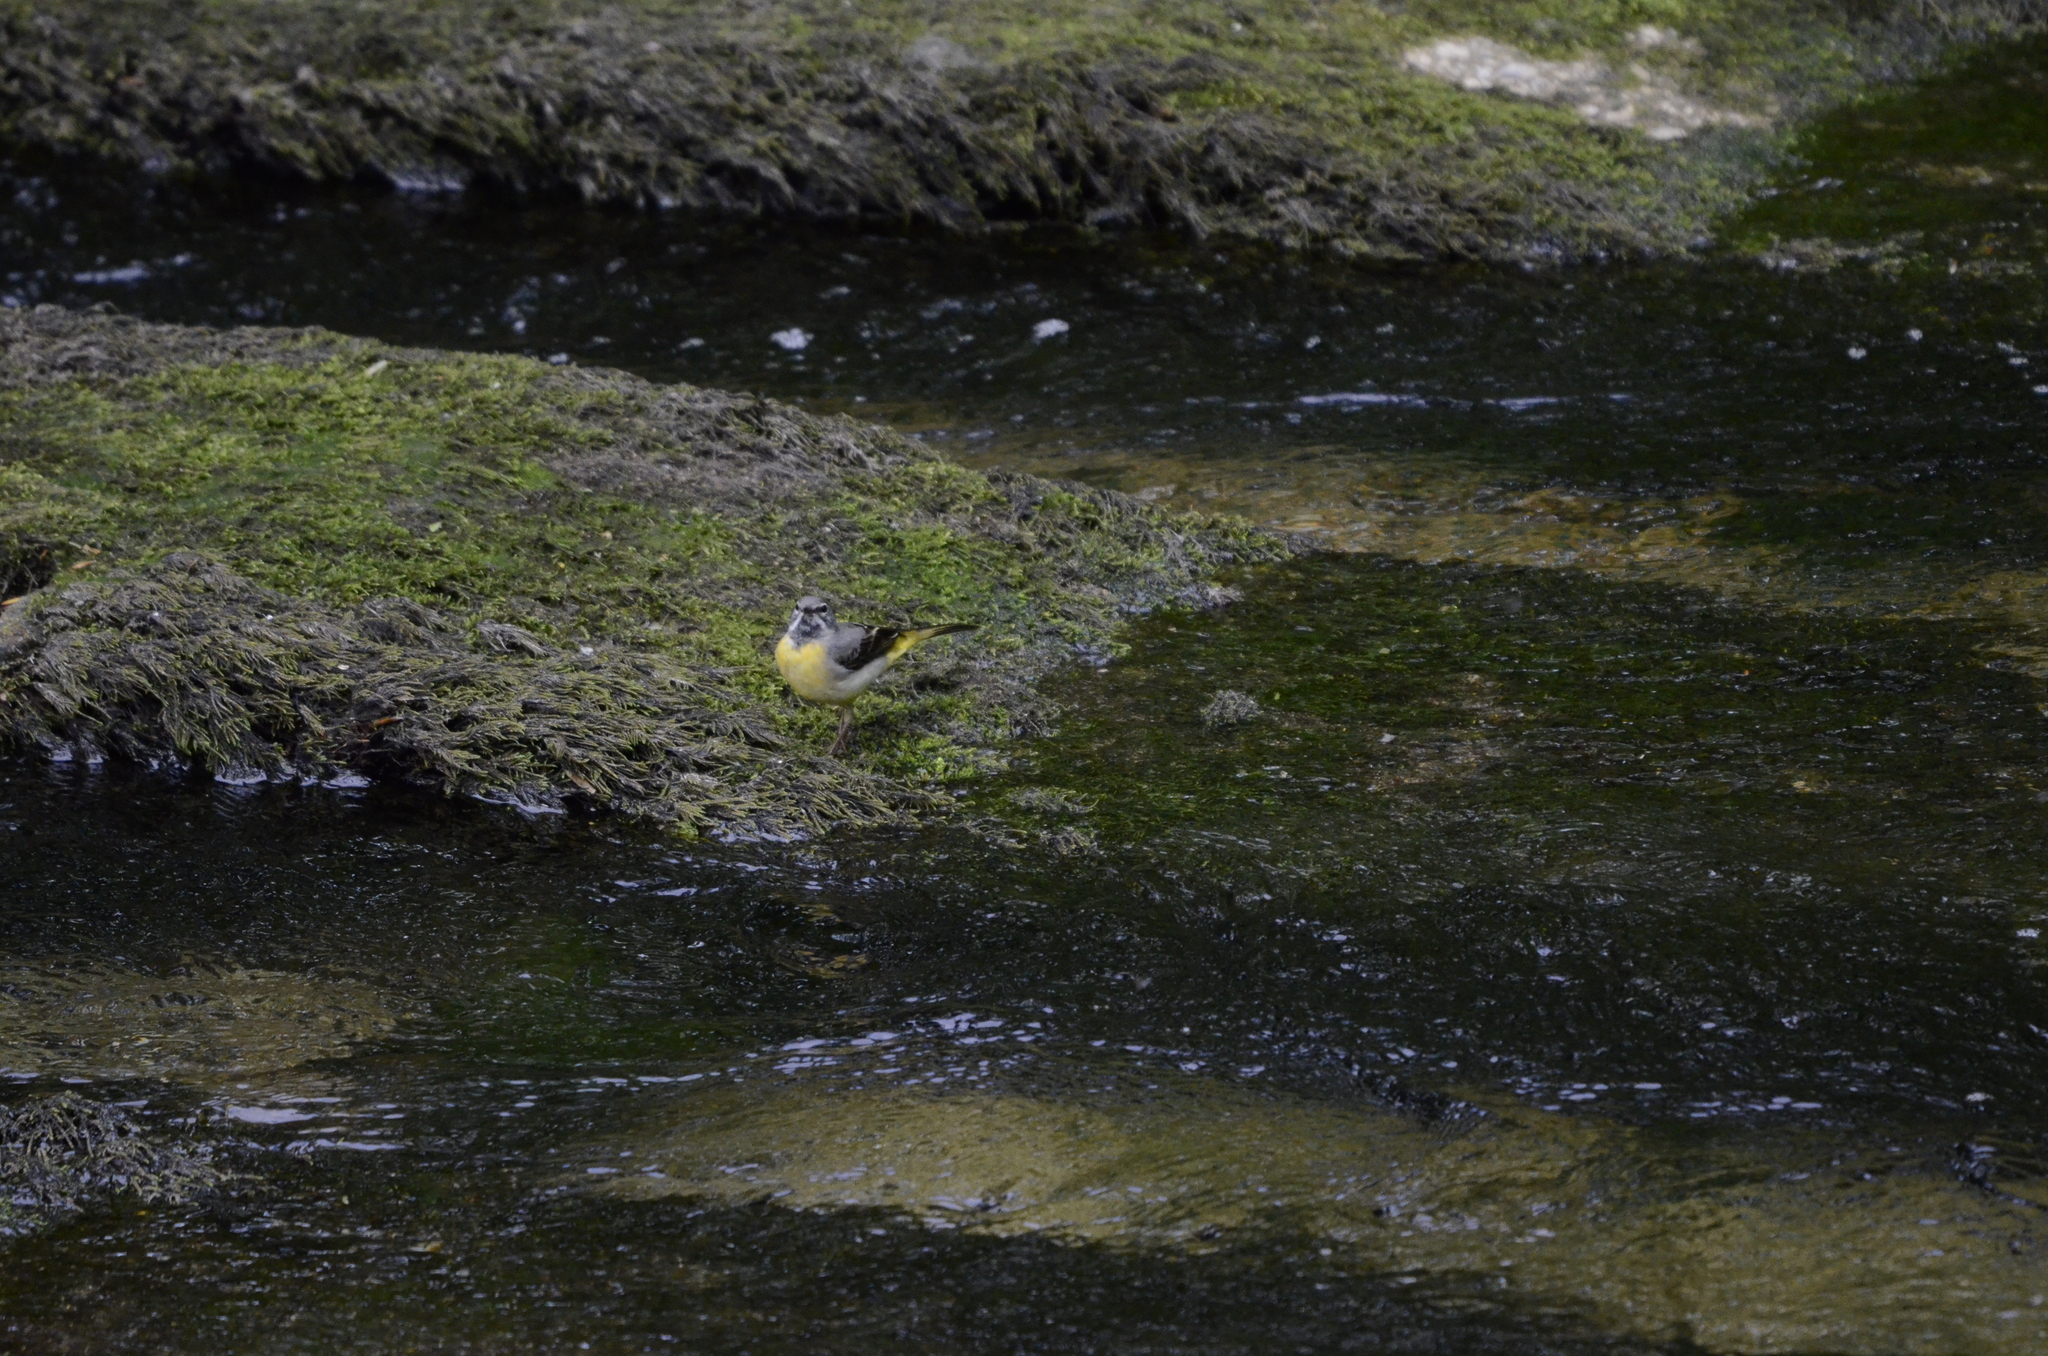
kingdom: Animalia
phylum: Chordata
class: Aves
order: Passeriformes
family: Motacillidae
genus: Motacilla
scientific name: Motacilla cinerea
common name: Grey wagtail
